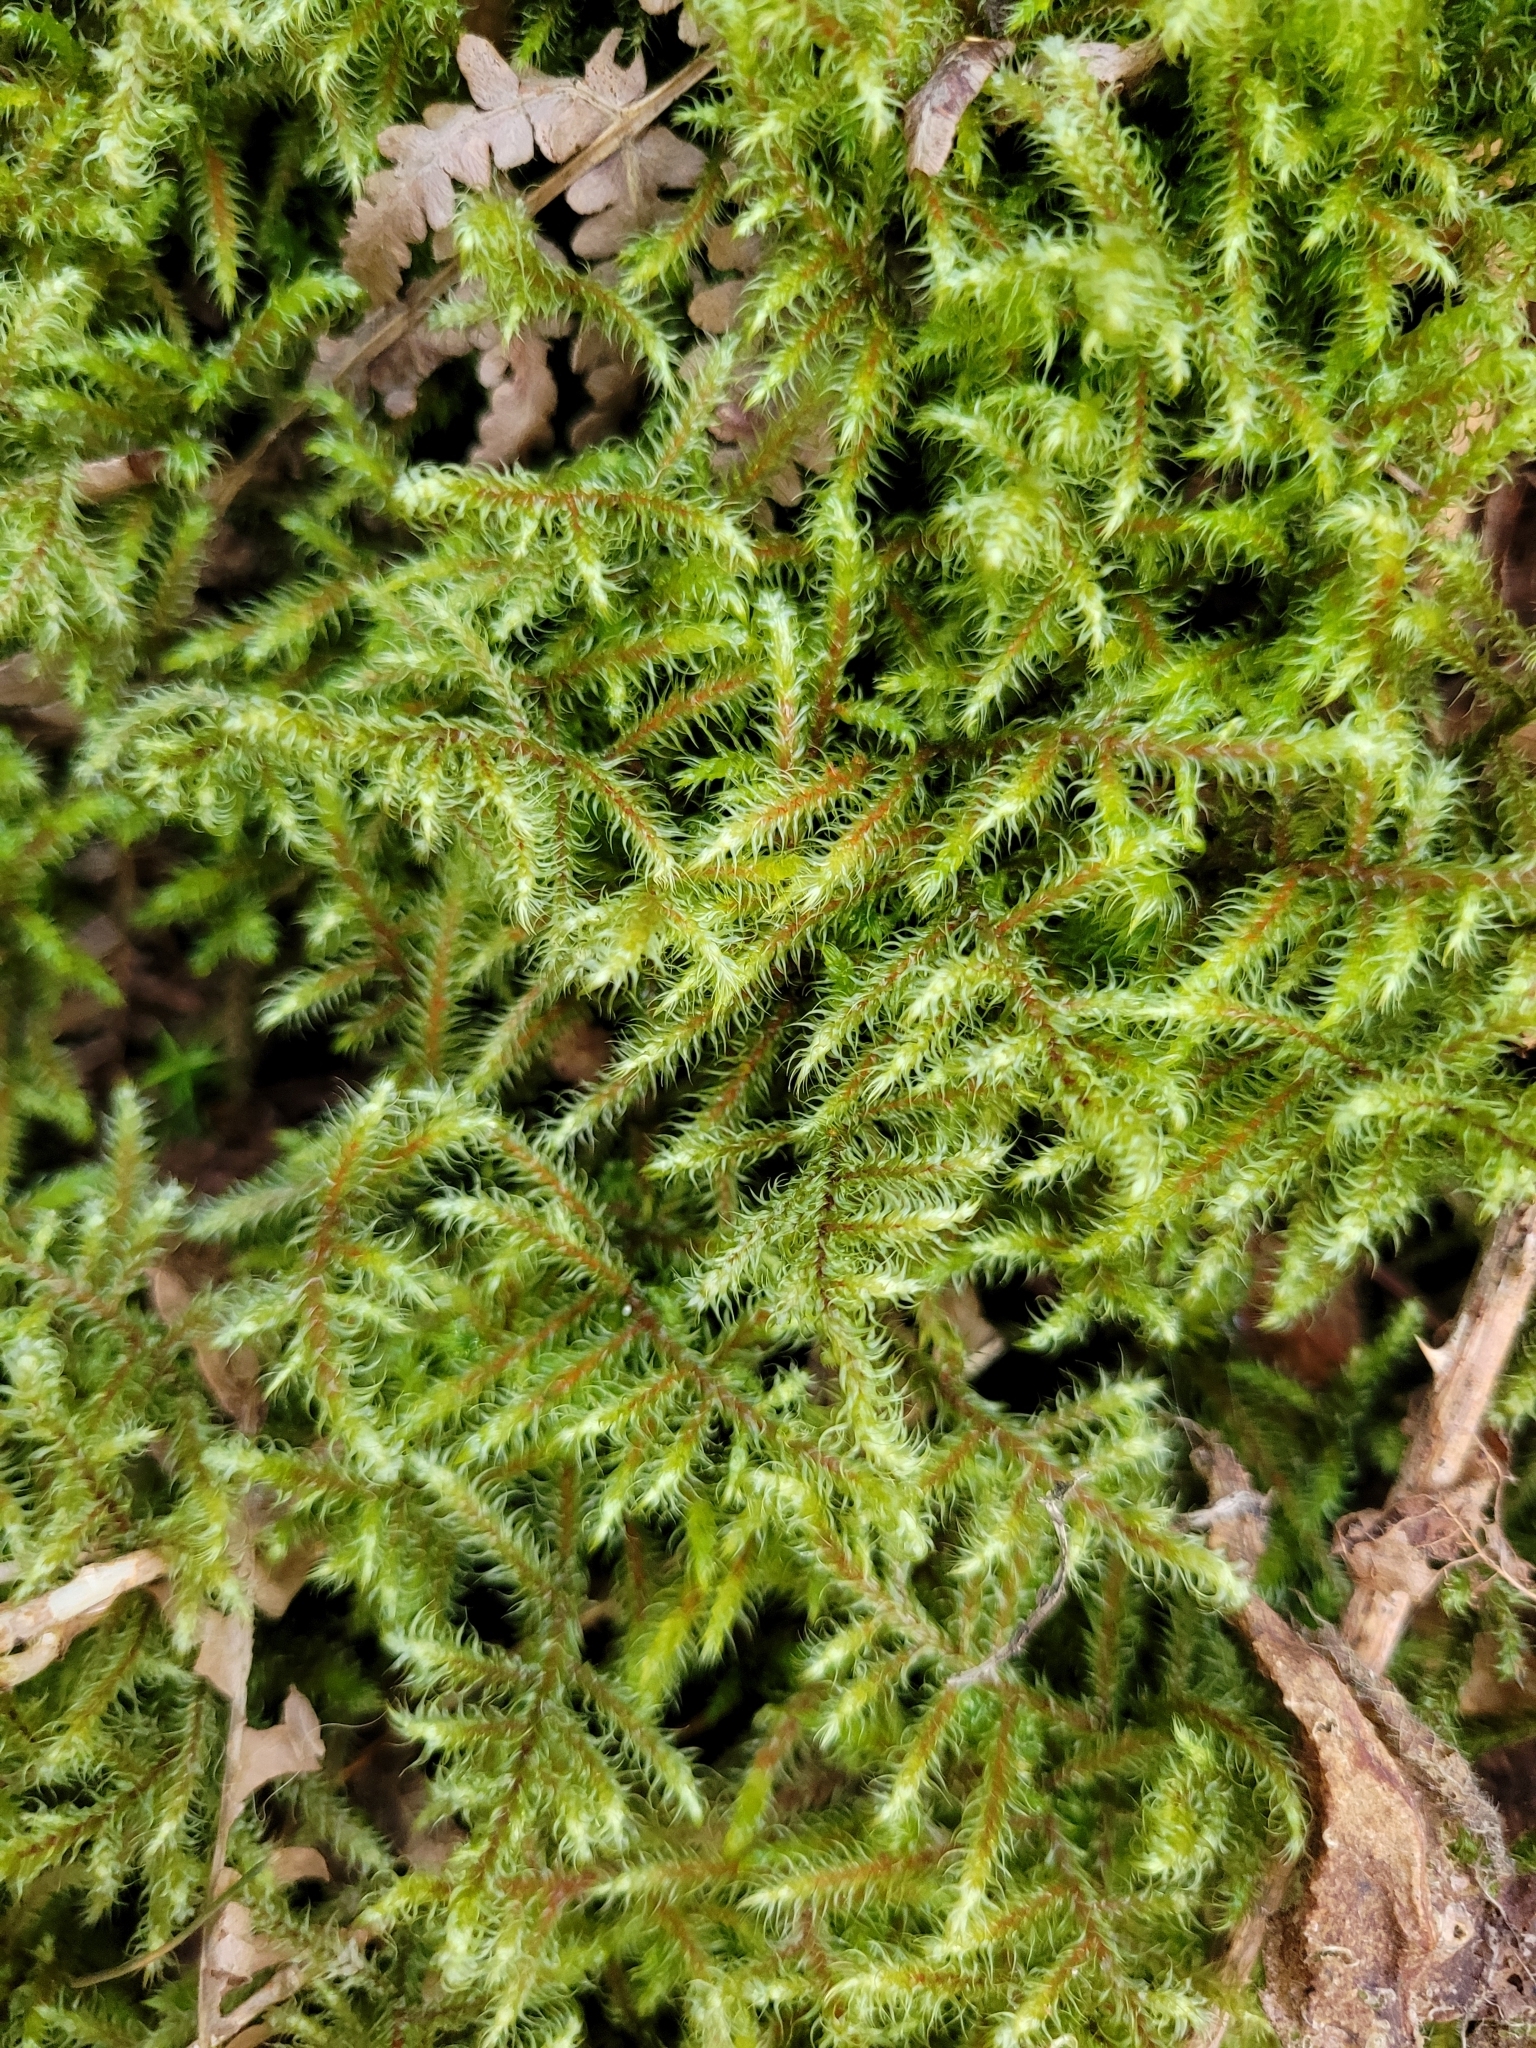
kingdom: Plantae
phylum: Bryophyta
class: Bryopsida
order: Hypnales
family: Hylocomiaceae
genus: Rhytidiadelphus
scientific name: Rhytidiadelphus loreus
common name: Lanky moss
